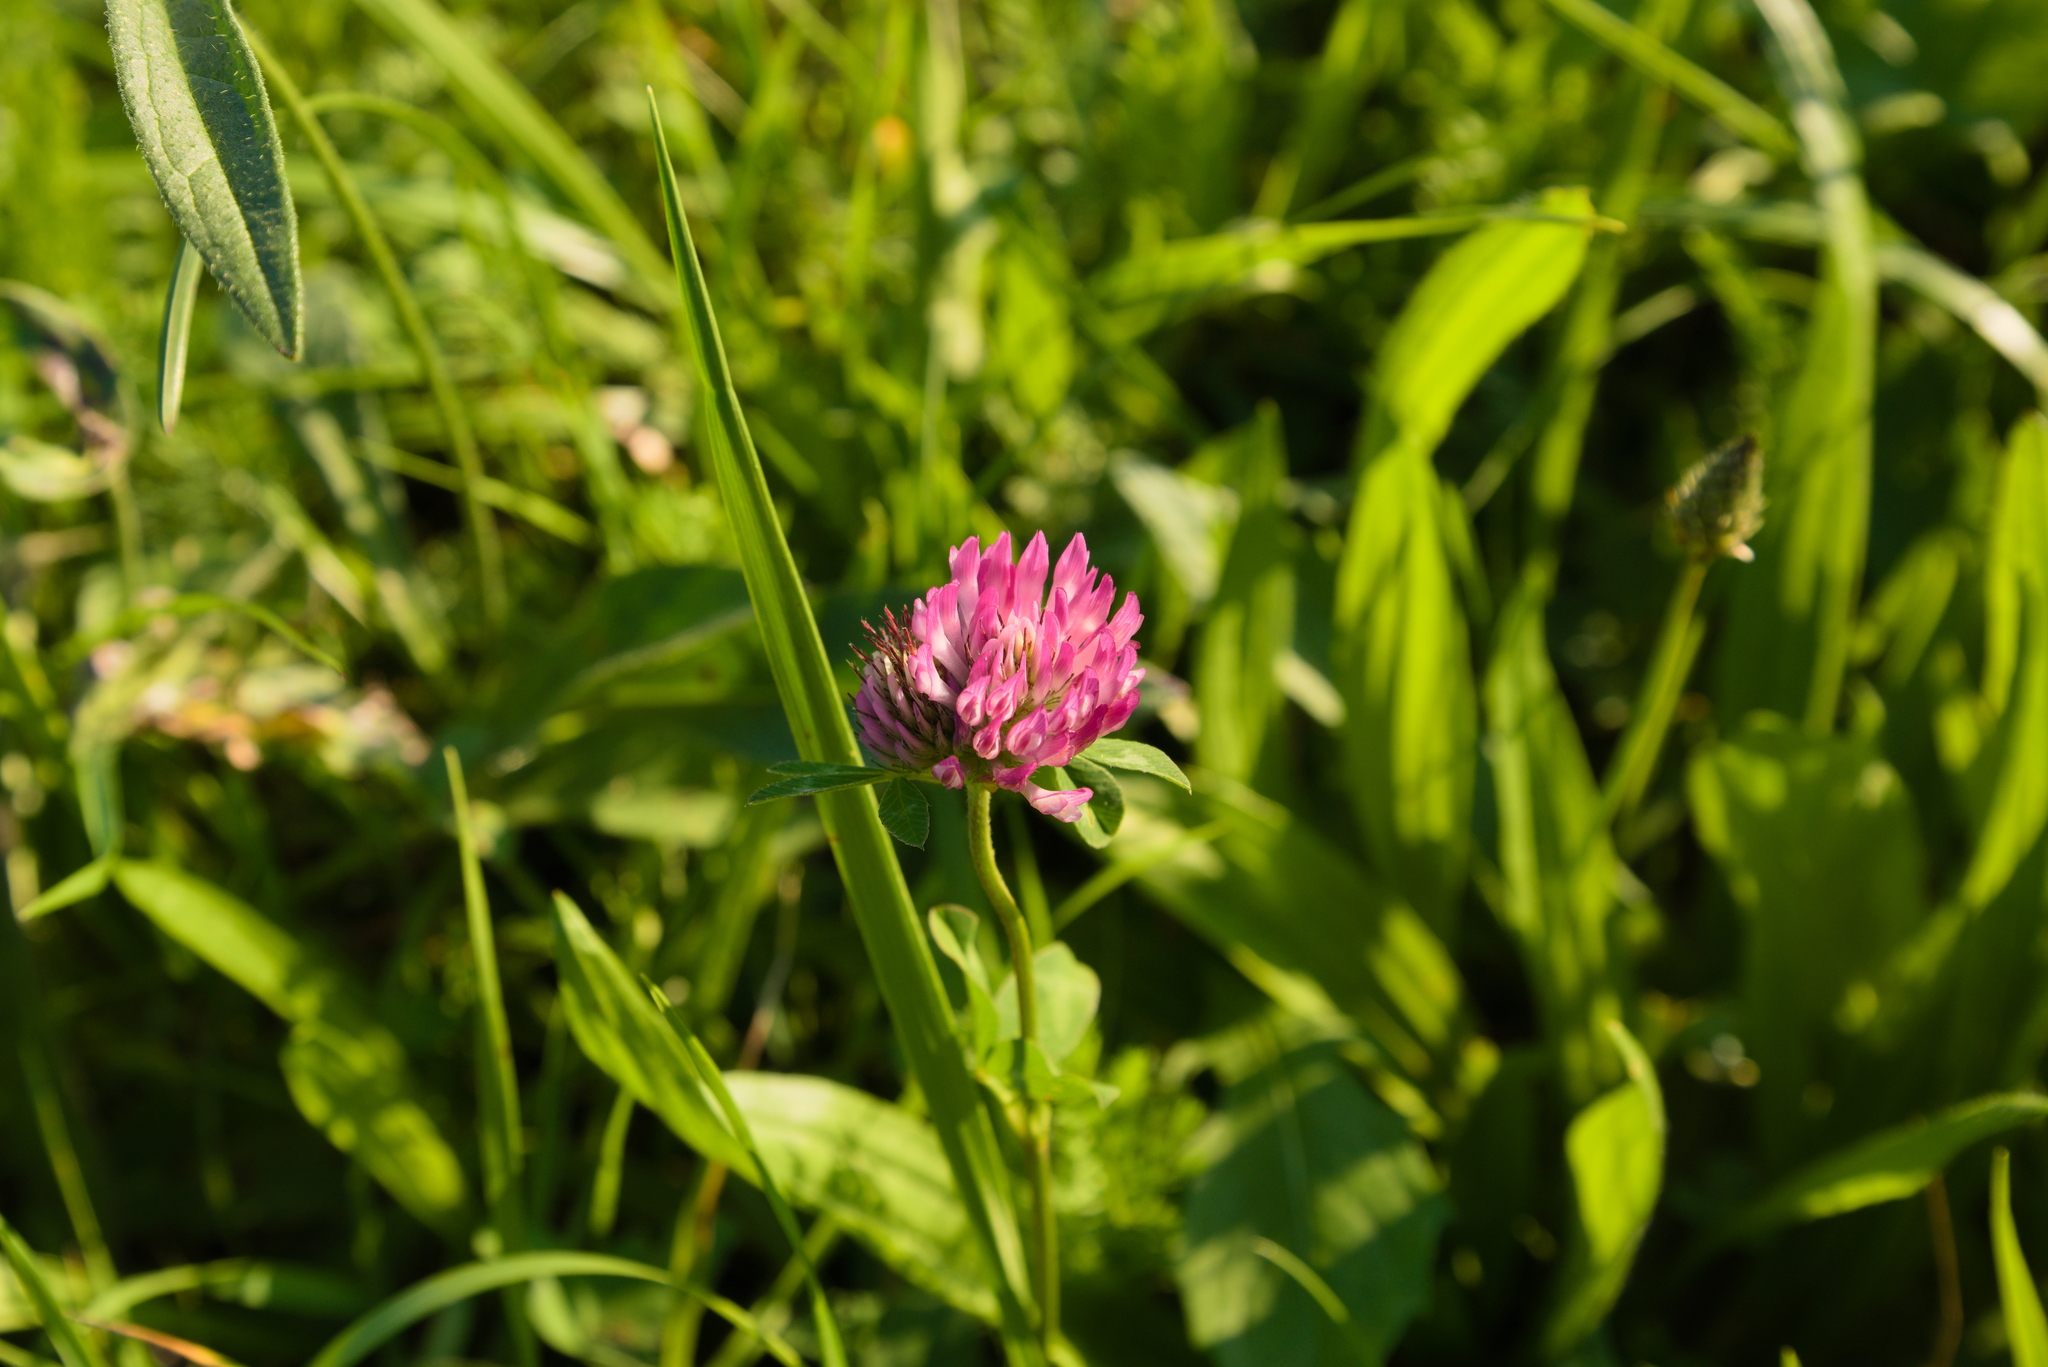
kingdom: Plantae
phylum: Tracheophyta
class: Magnoliopsida
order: Fabales
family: Fabaceae
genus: Trifolium
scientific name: Trifolium pratense
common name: Red clover
